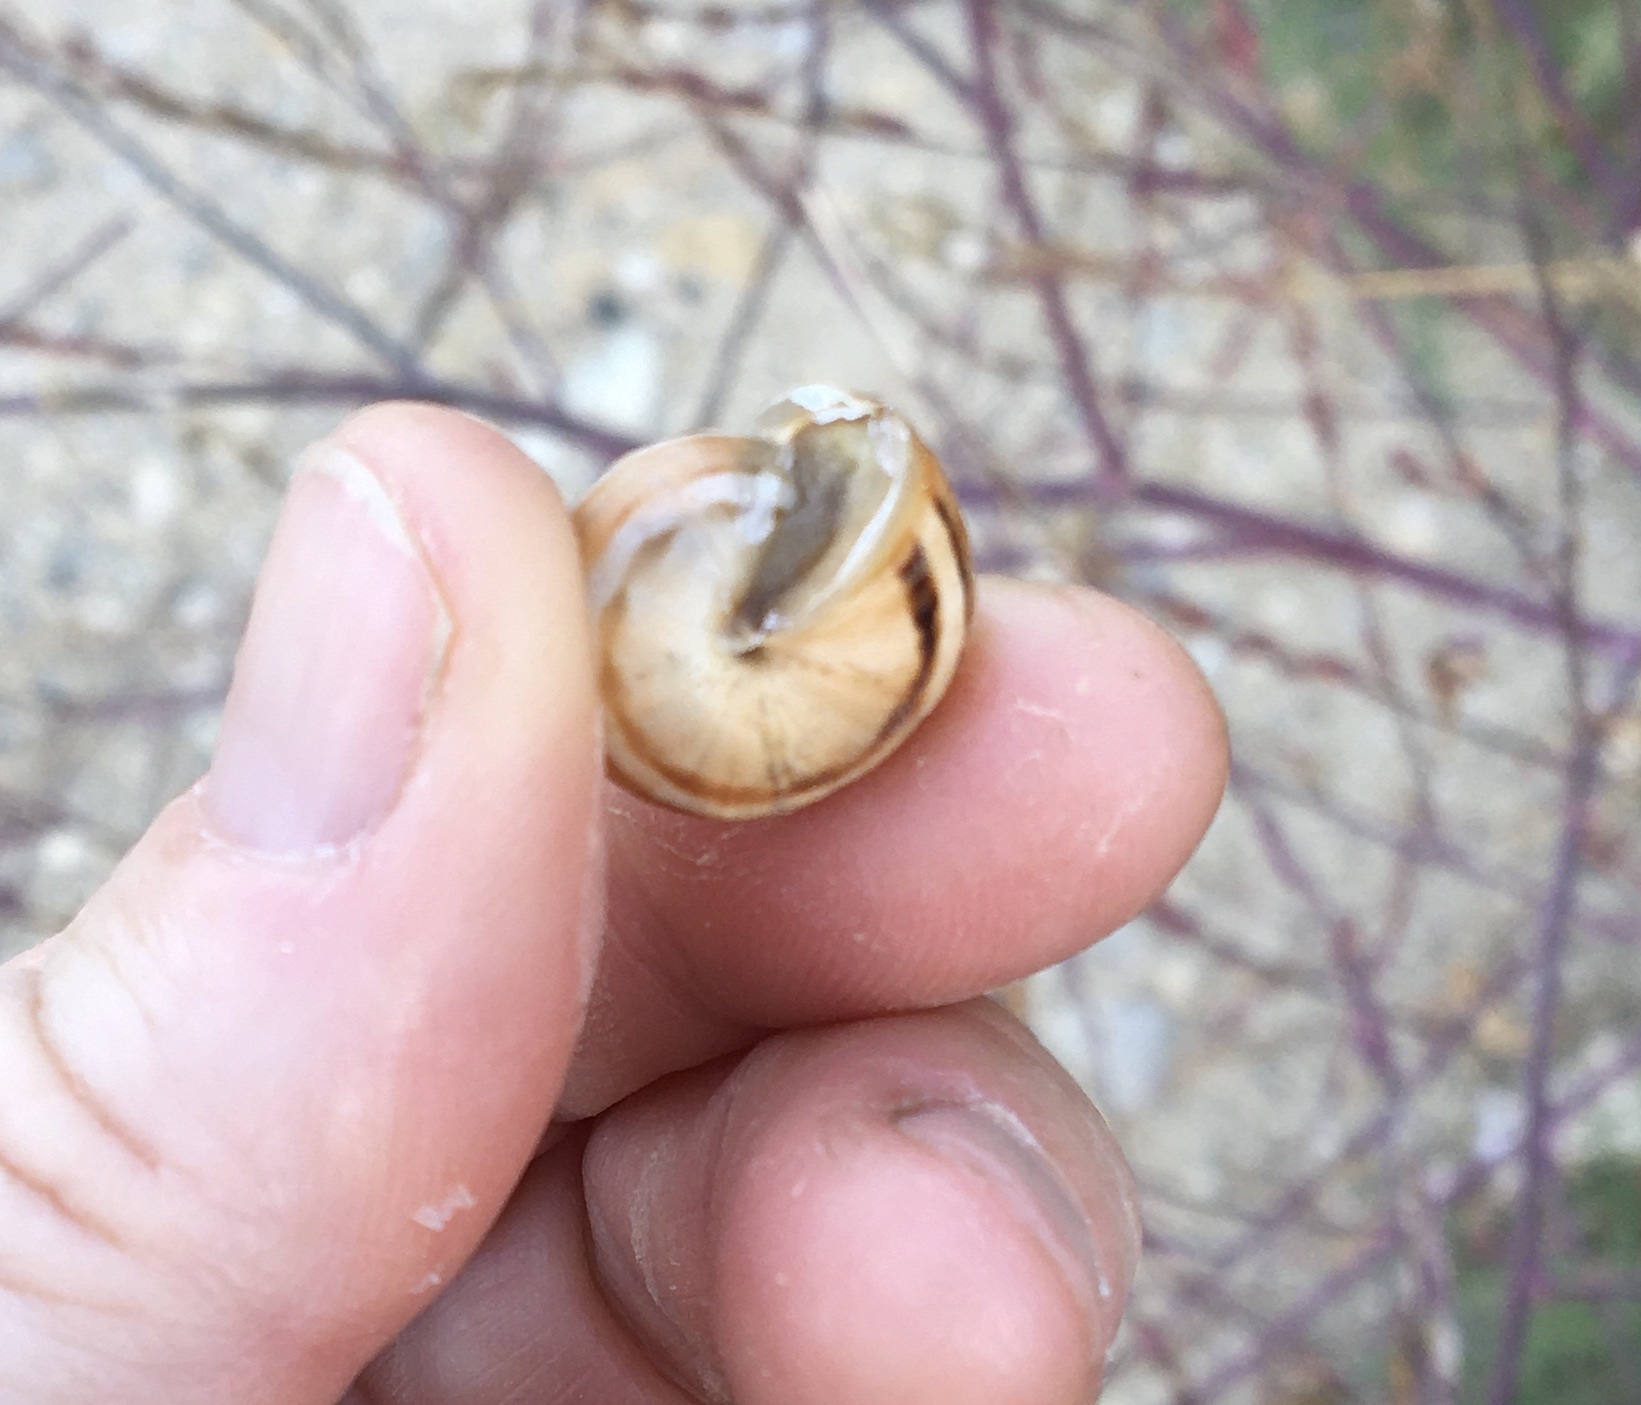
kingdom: Animalia
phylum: Mollusca
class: Gastropoda
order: Stylommatophora
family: Helicidae
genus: Theba
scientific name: Theba pisana
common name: White snail
